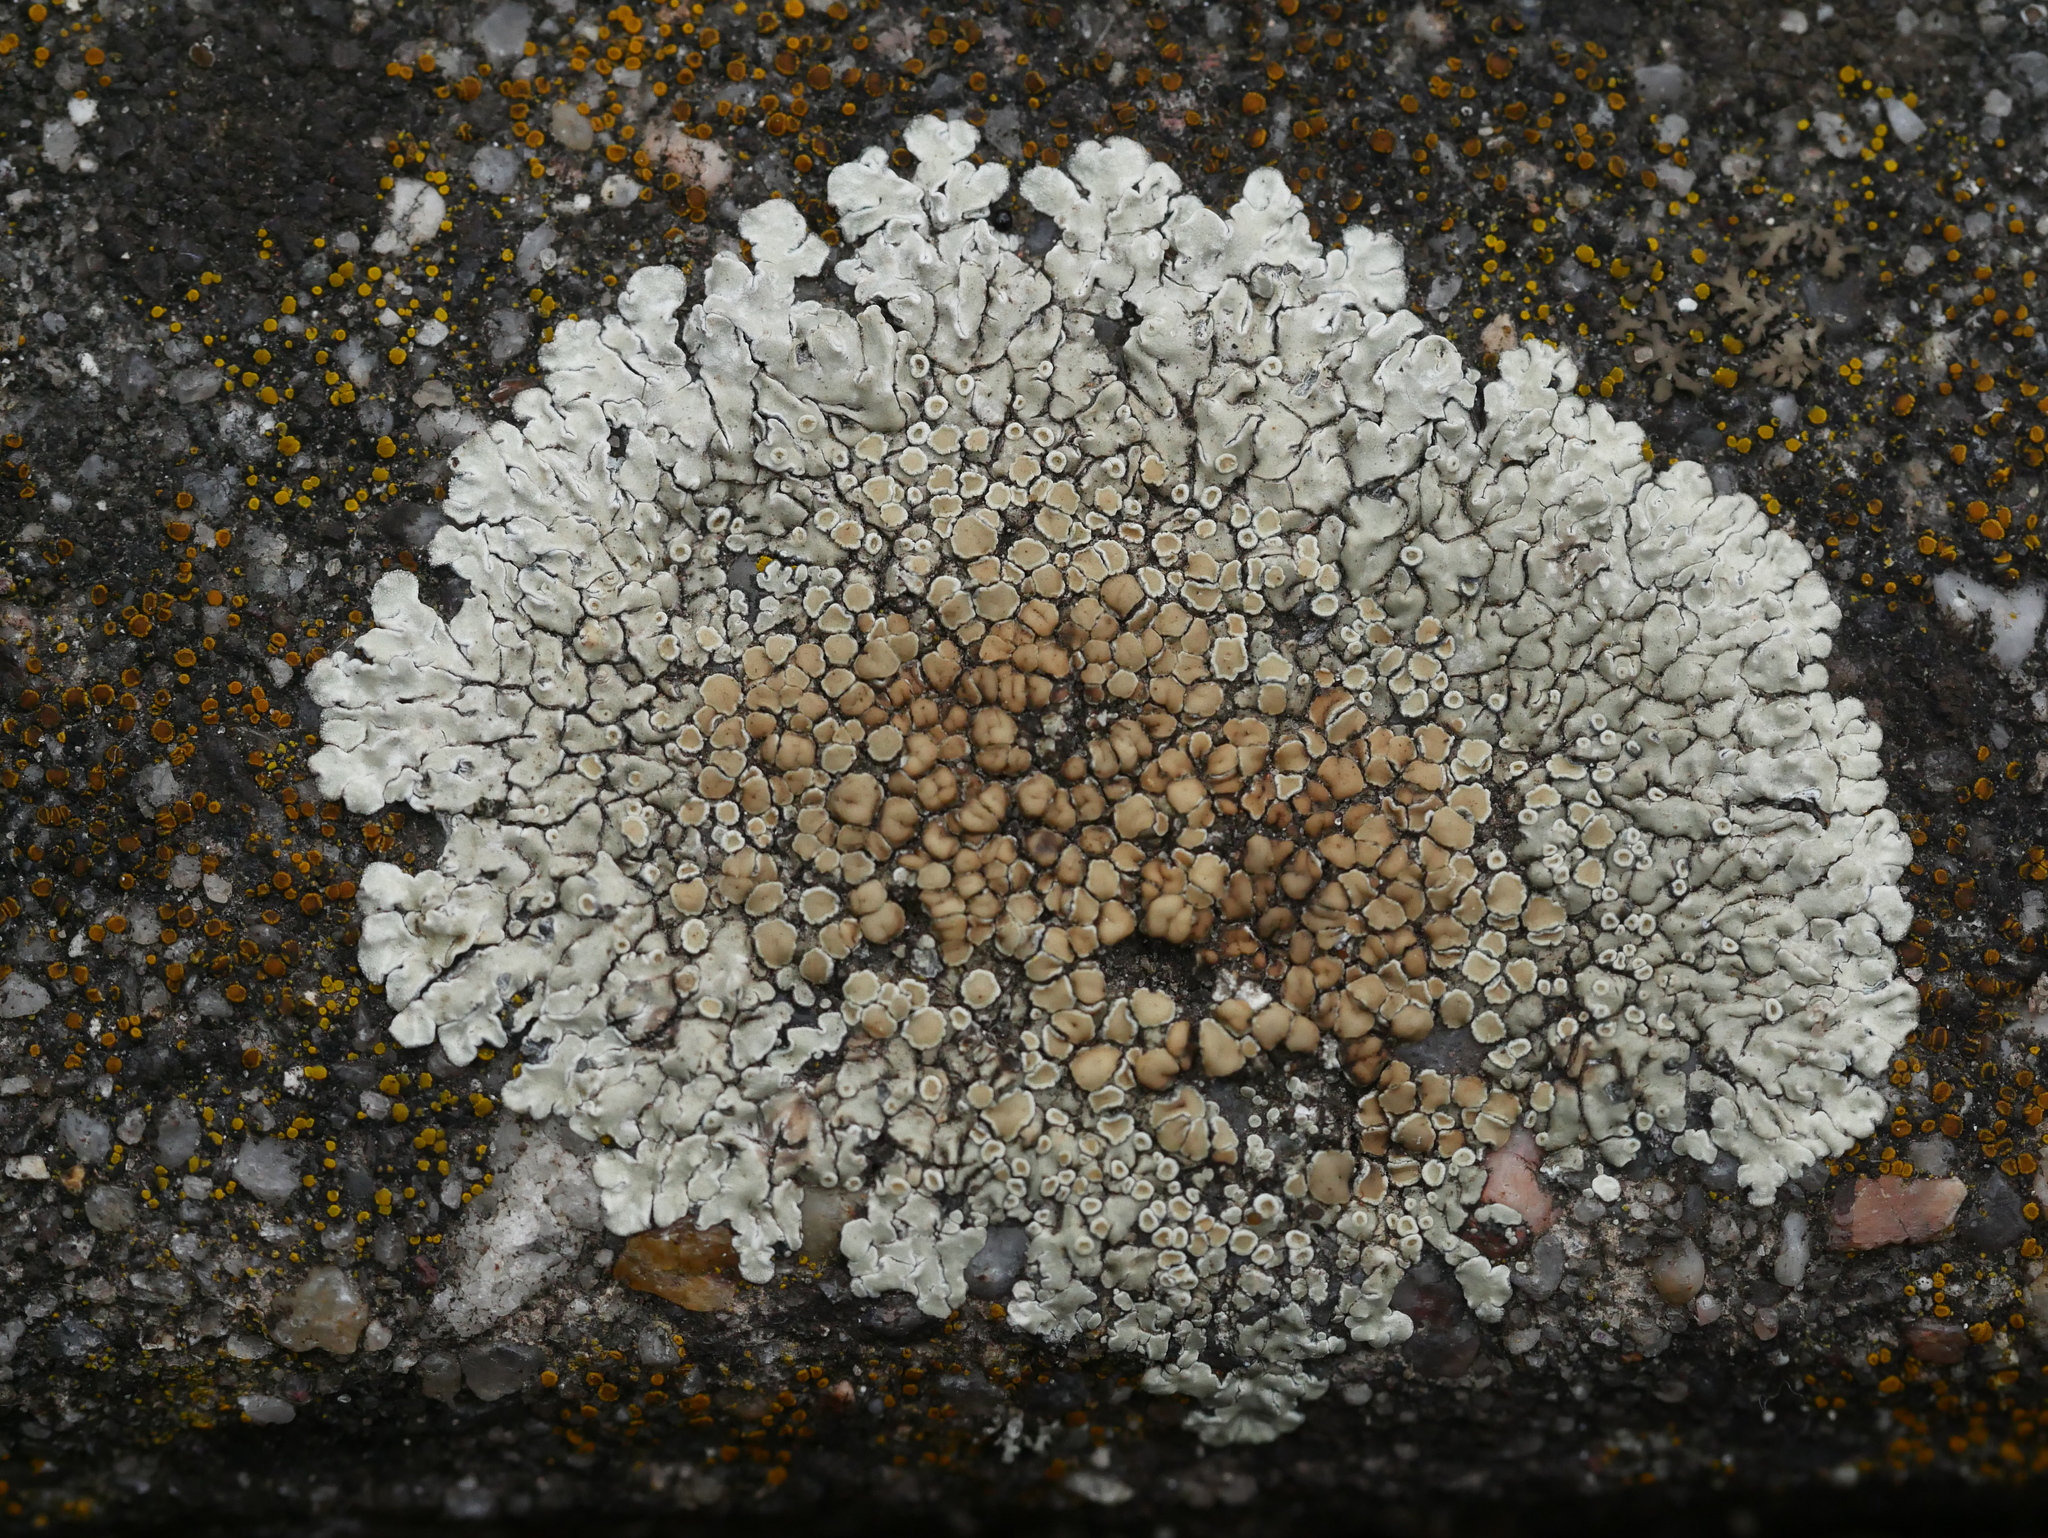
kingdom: Fungi
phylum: Ascomycota
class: Lecanoromycetes
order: Lecanorales
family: Lecanoraceae
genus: Protoparmeliopsis
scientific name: Protoparmeliopsis muralis
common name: Stonewall rim lichen
